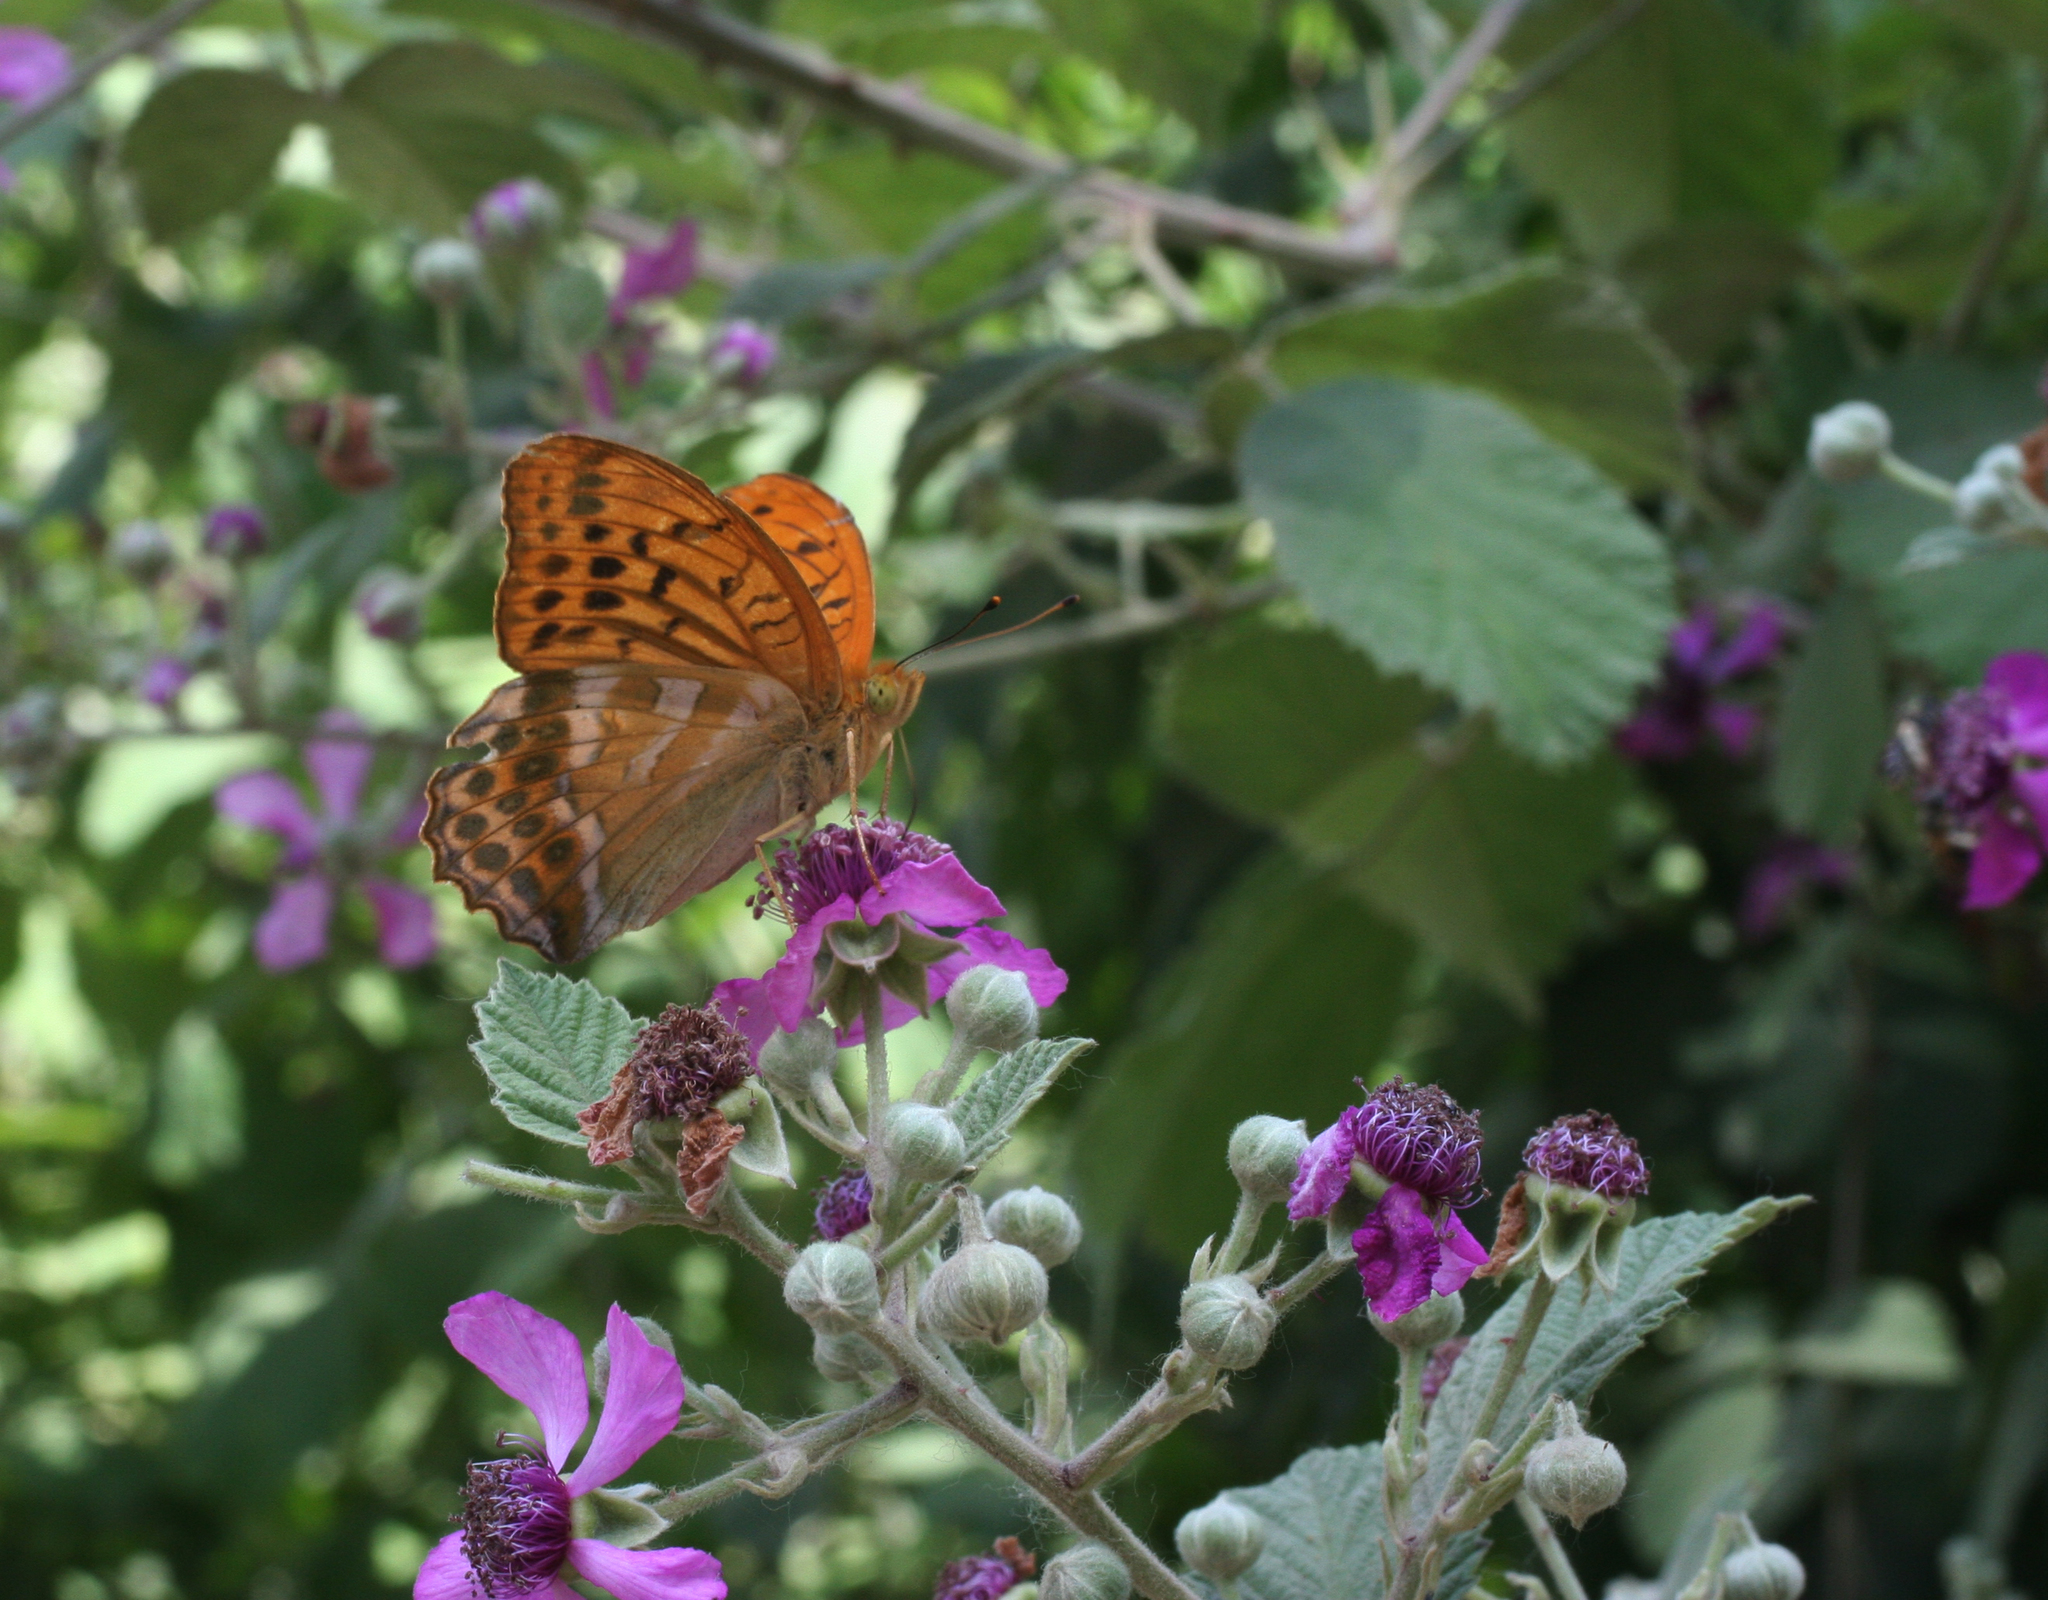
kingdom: Animalia
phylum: Arthropoda
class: Insecta
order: Lepidoptera
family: Nymphalidae
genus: Argynnis
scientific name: Argynnis paphia
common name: Silver-washed fritillary
